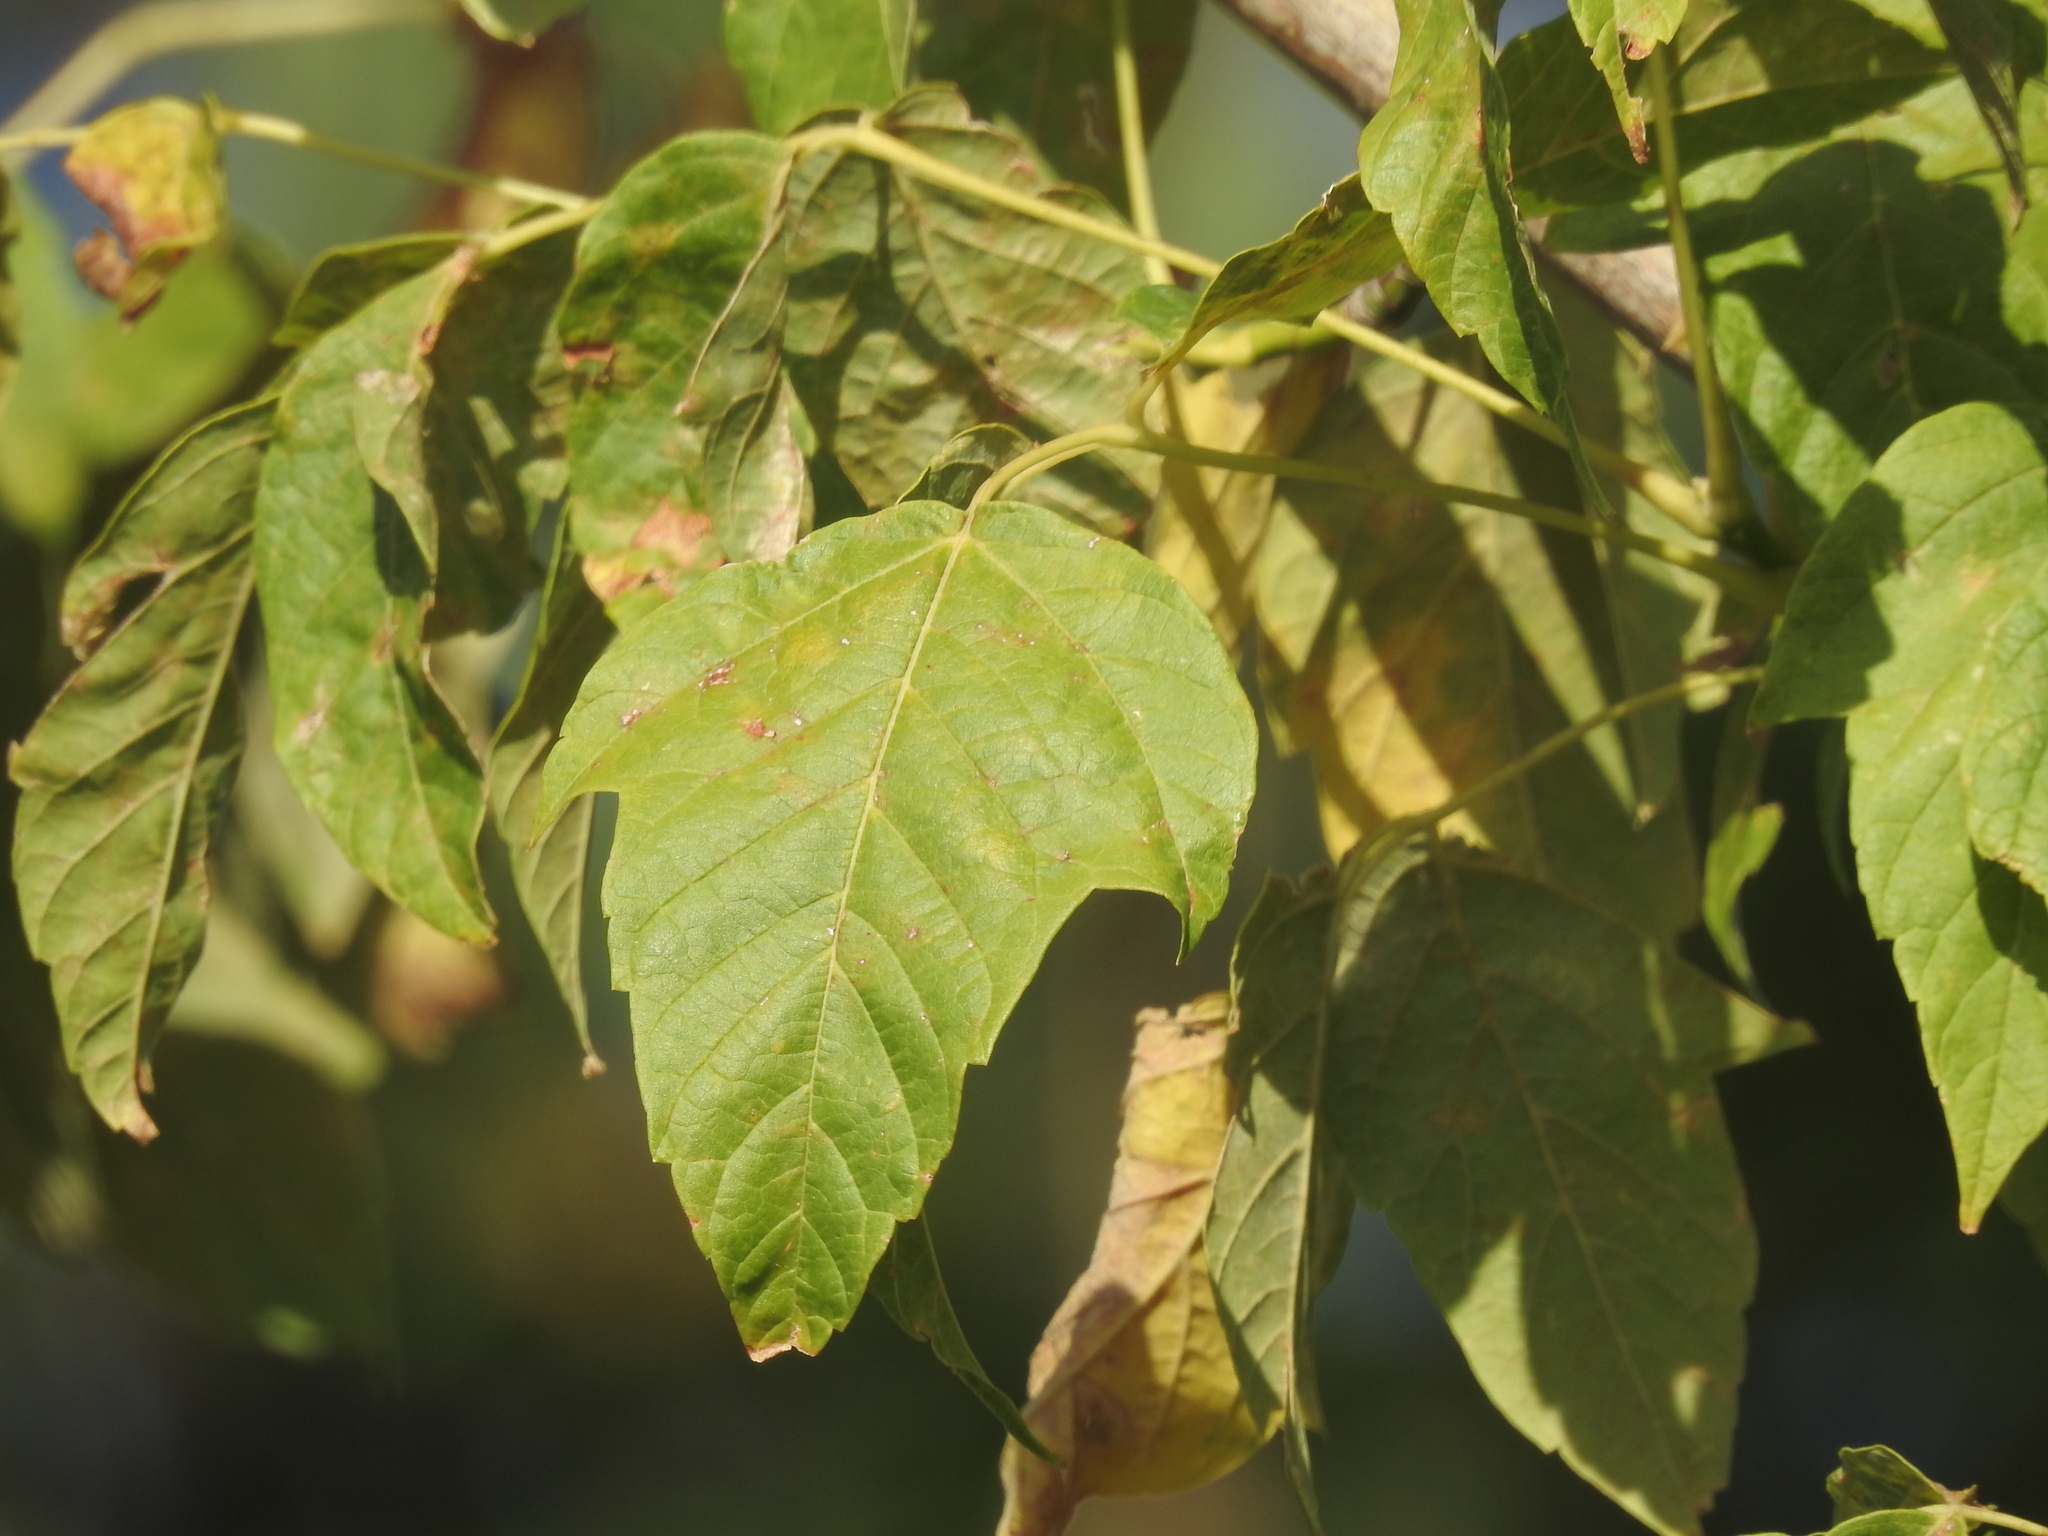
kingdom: Plantae
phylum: Tracheophyta
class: Magnoliopsida
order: Sapindales
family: Sapindaceae
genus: Acer
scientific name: Acer negundo
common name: Ashleaf maple
